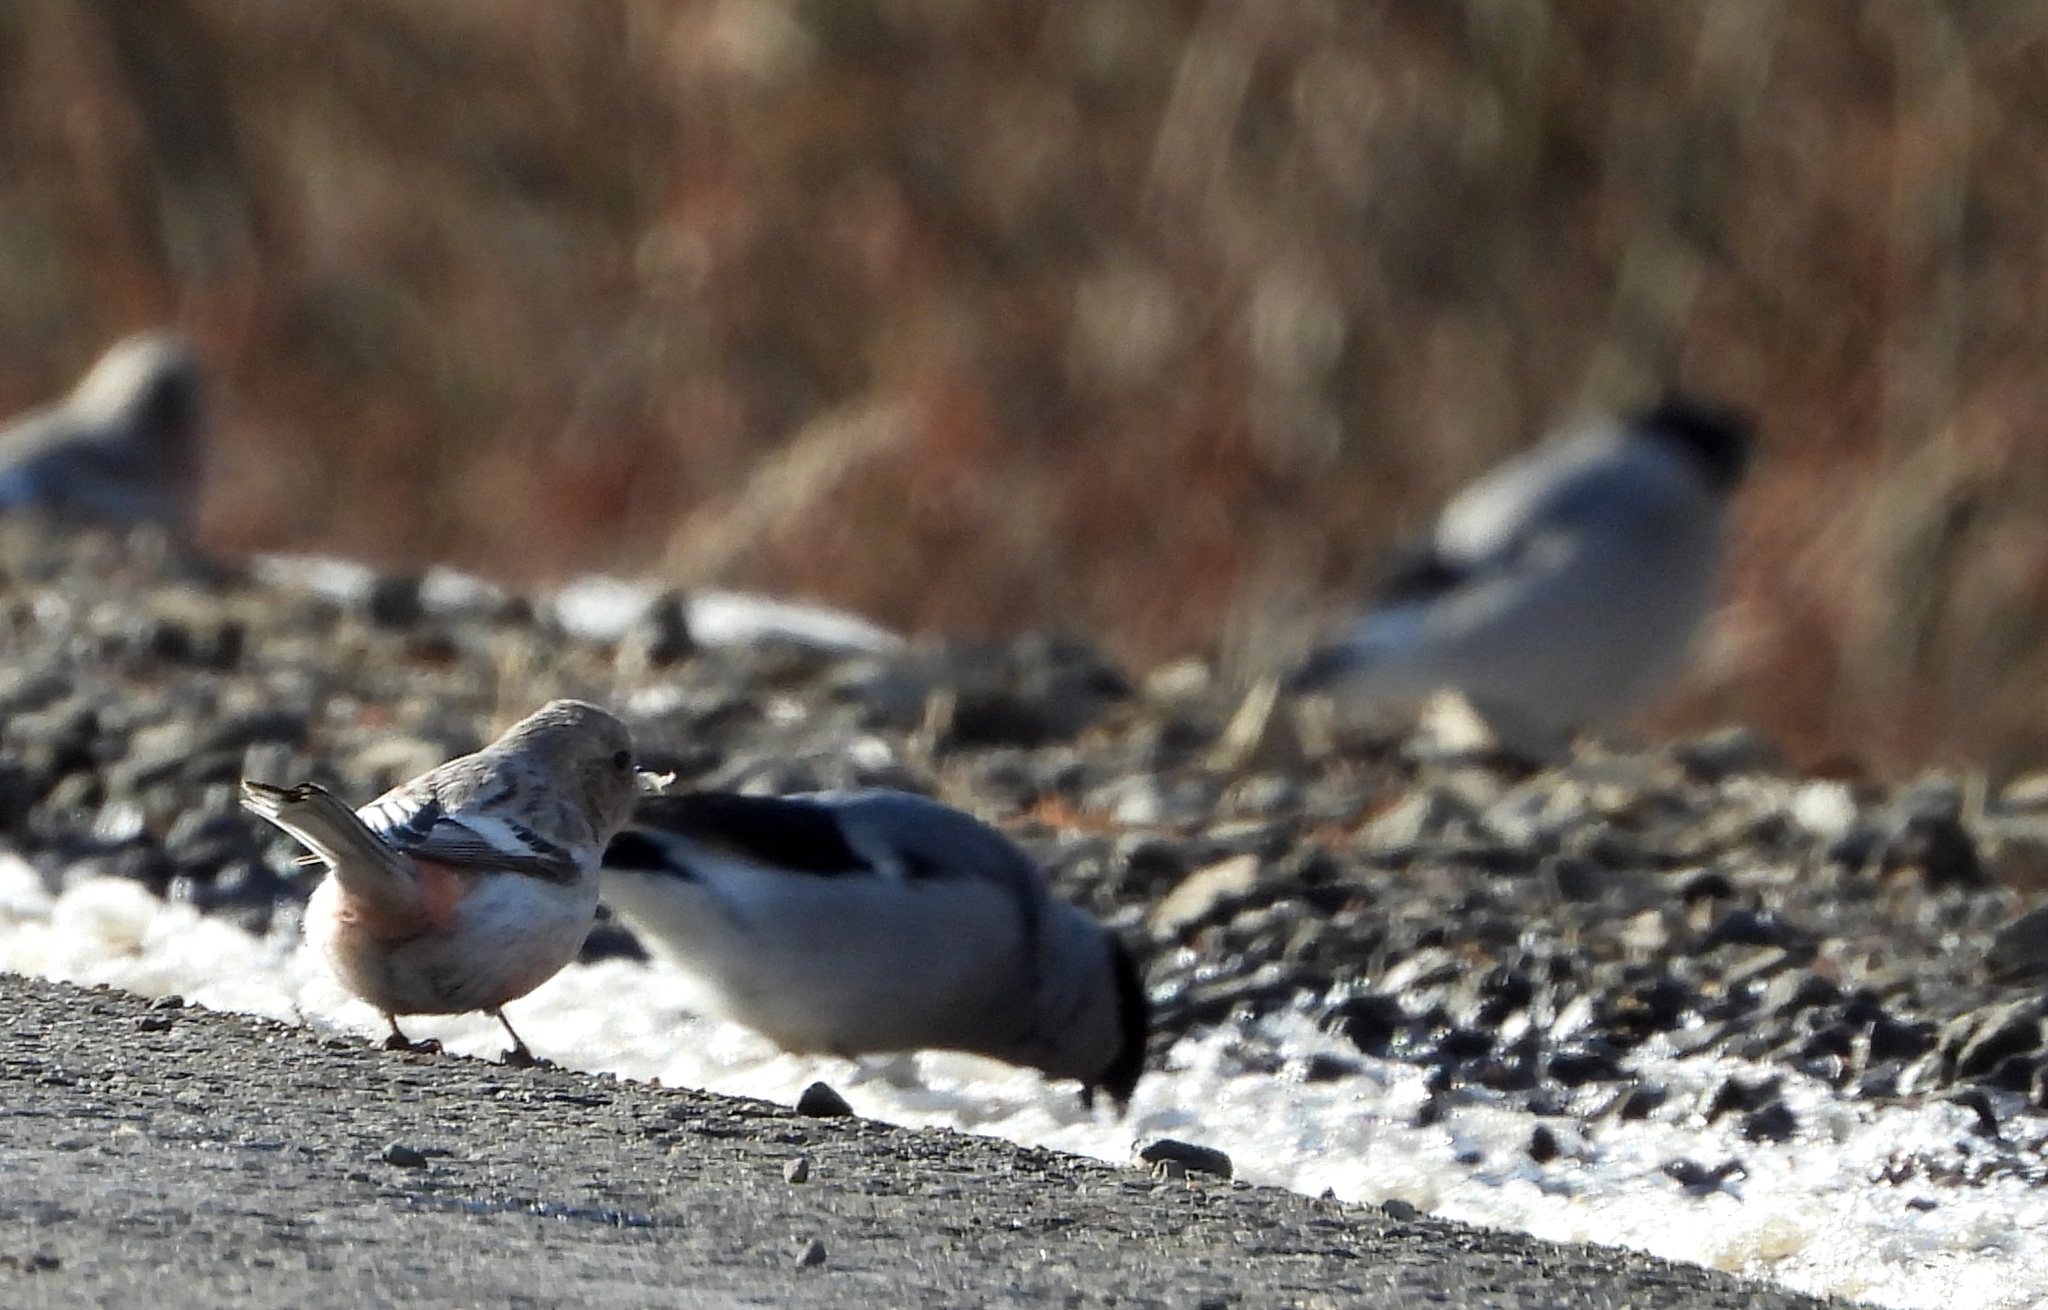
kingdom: Animalia
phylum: Chordata
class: Aves
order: Passeriformes
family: Fringillidae
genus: Pyrrhula
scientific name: Pyrrhula pyrrhula
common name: Eurasian bullfinch
